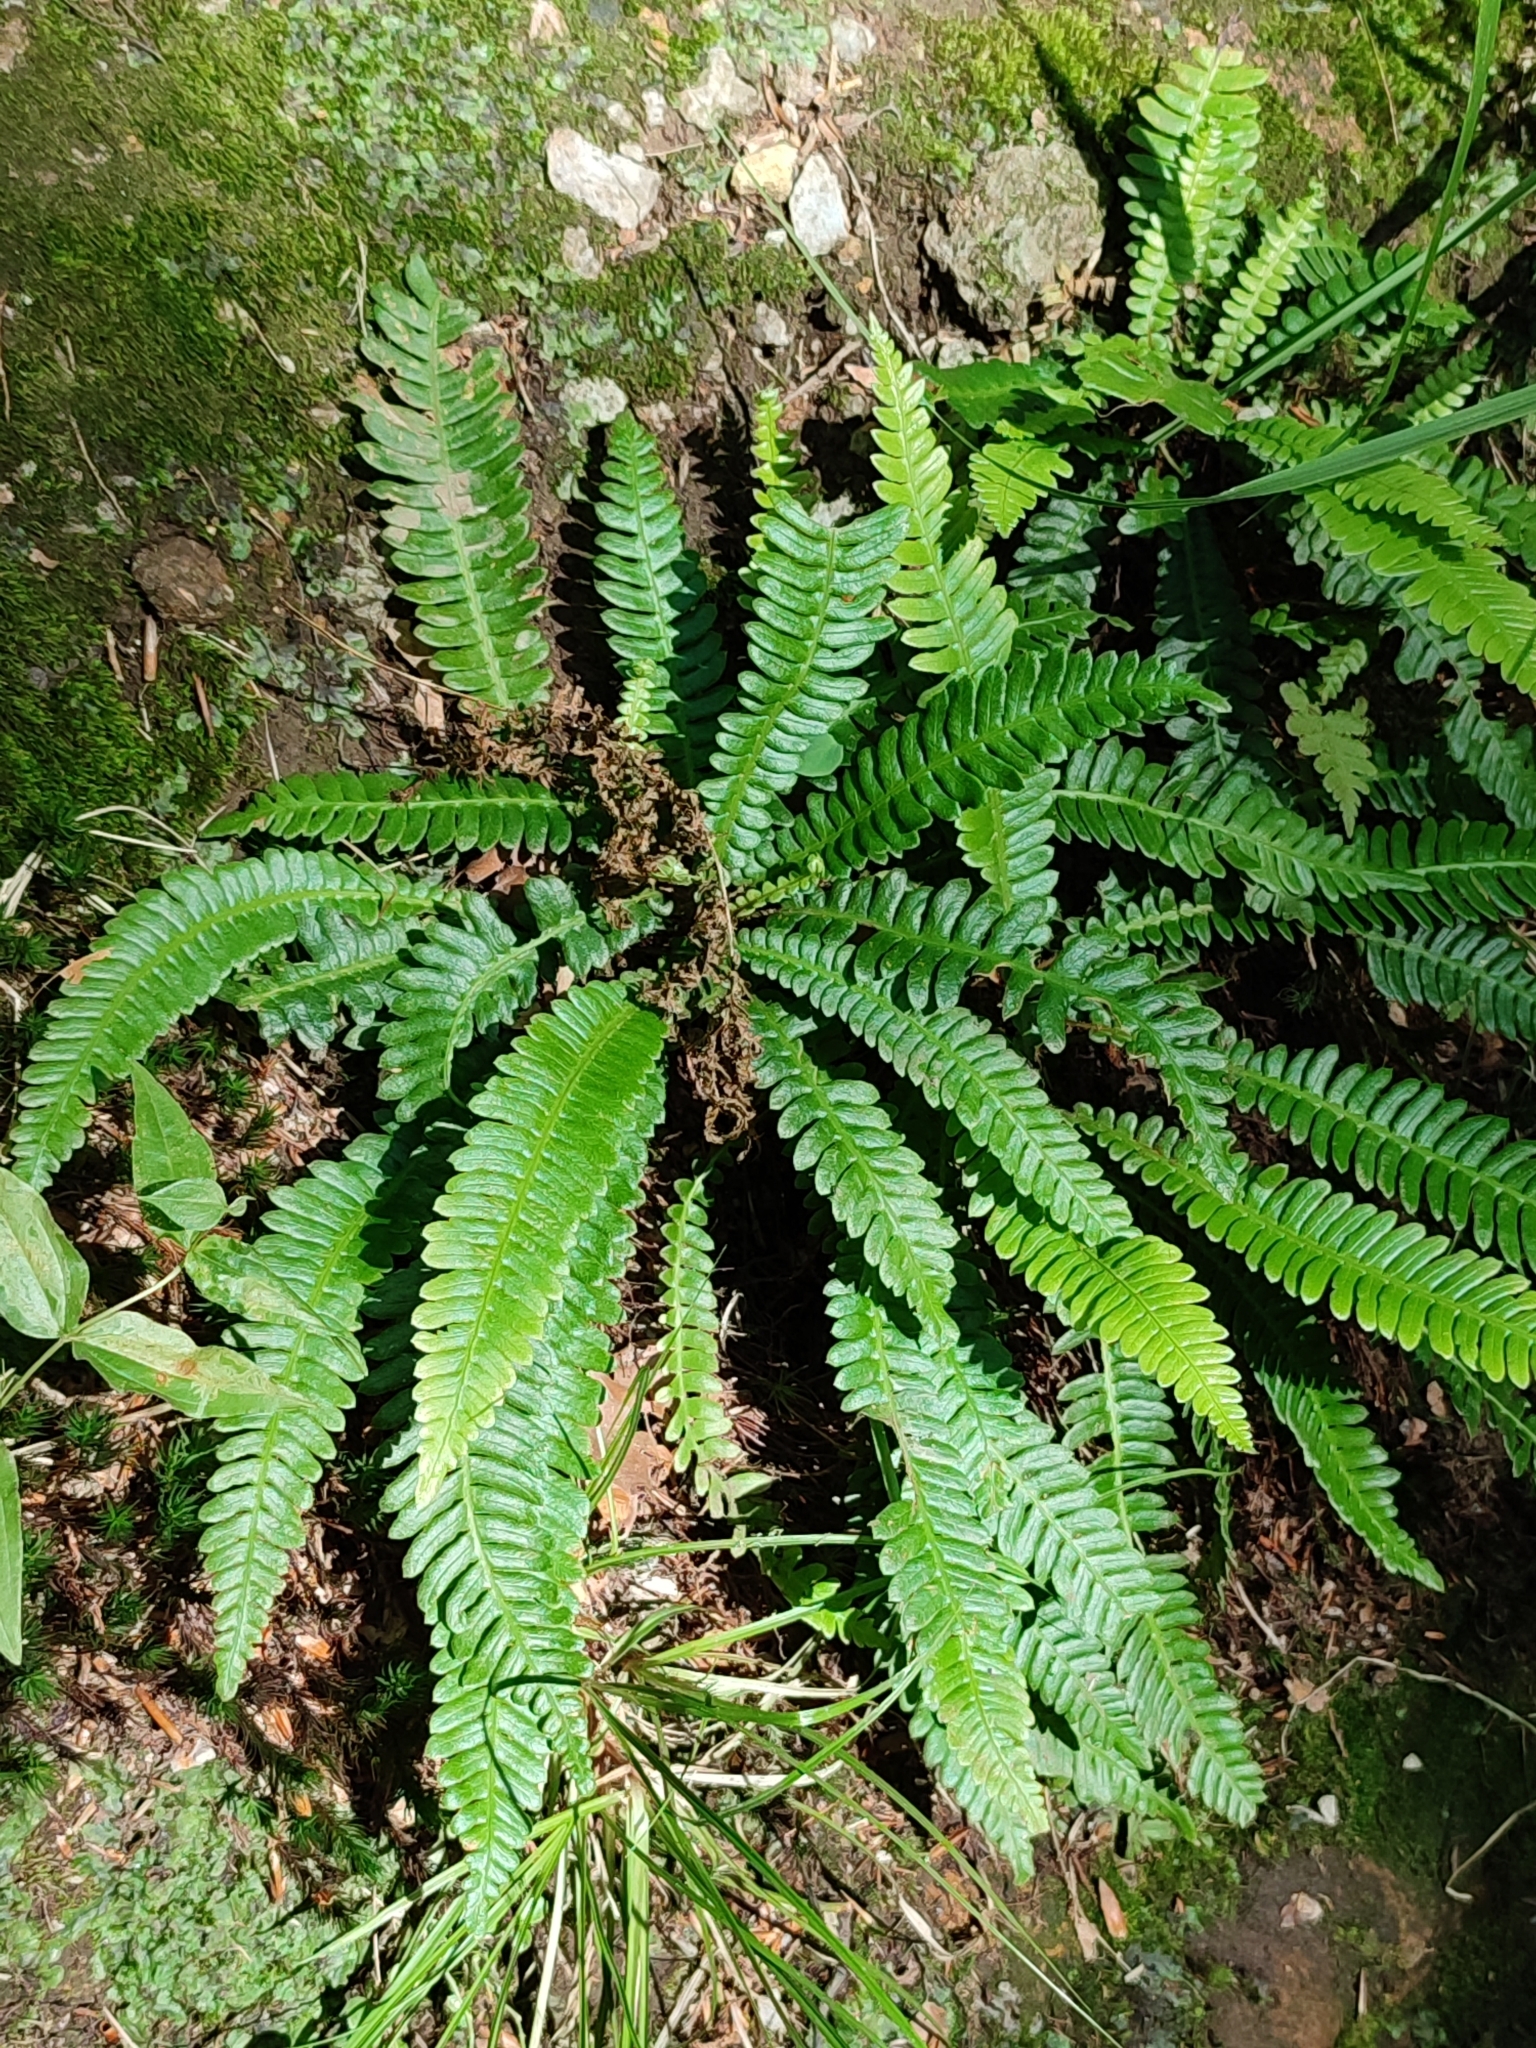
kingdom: Plantae
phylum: Tracheophyta
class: Polypodiopsida
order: Polypodiales
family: Blechnaceae
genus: Struthiopteris
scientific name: Struthiopteris spicant
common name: Deer fern
